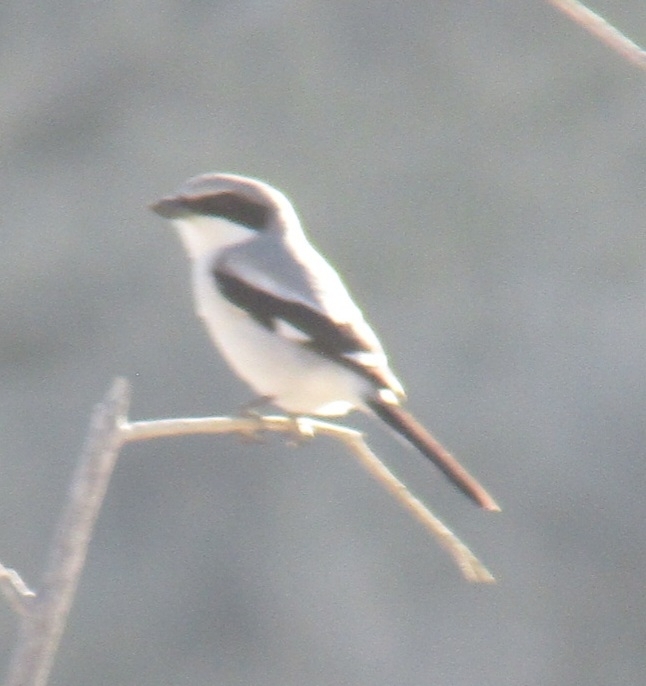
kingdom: Animalia
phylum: Chordata
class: Aves
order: Passeriformes
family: Laniidae
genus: Lanius
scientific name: Lanius ludovicianus
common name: Loggerhead shrike
